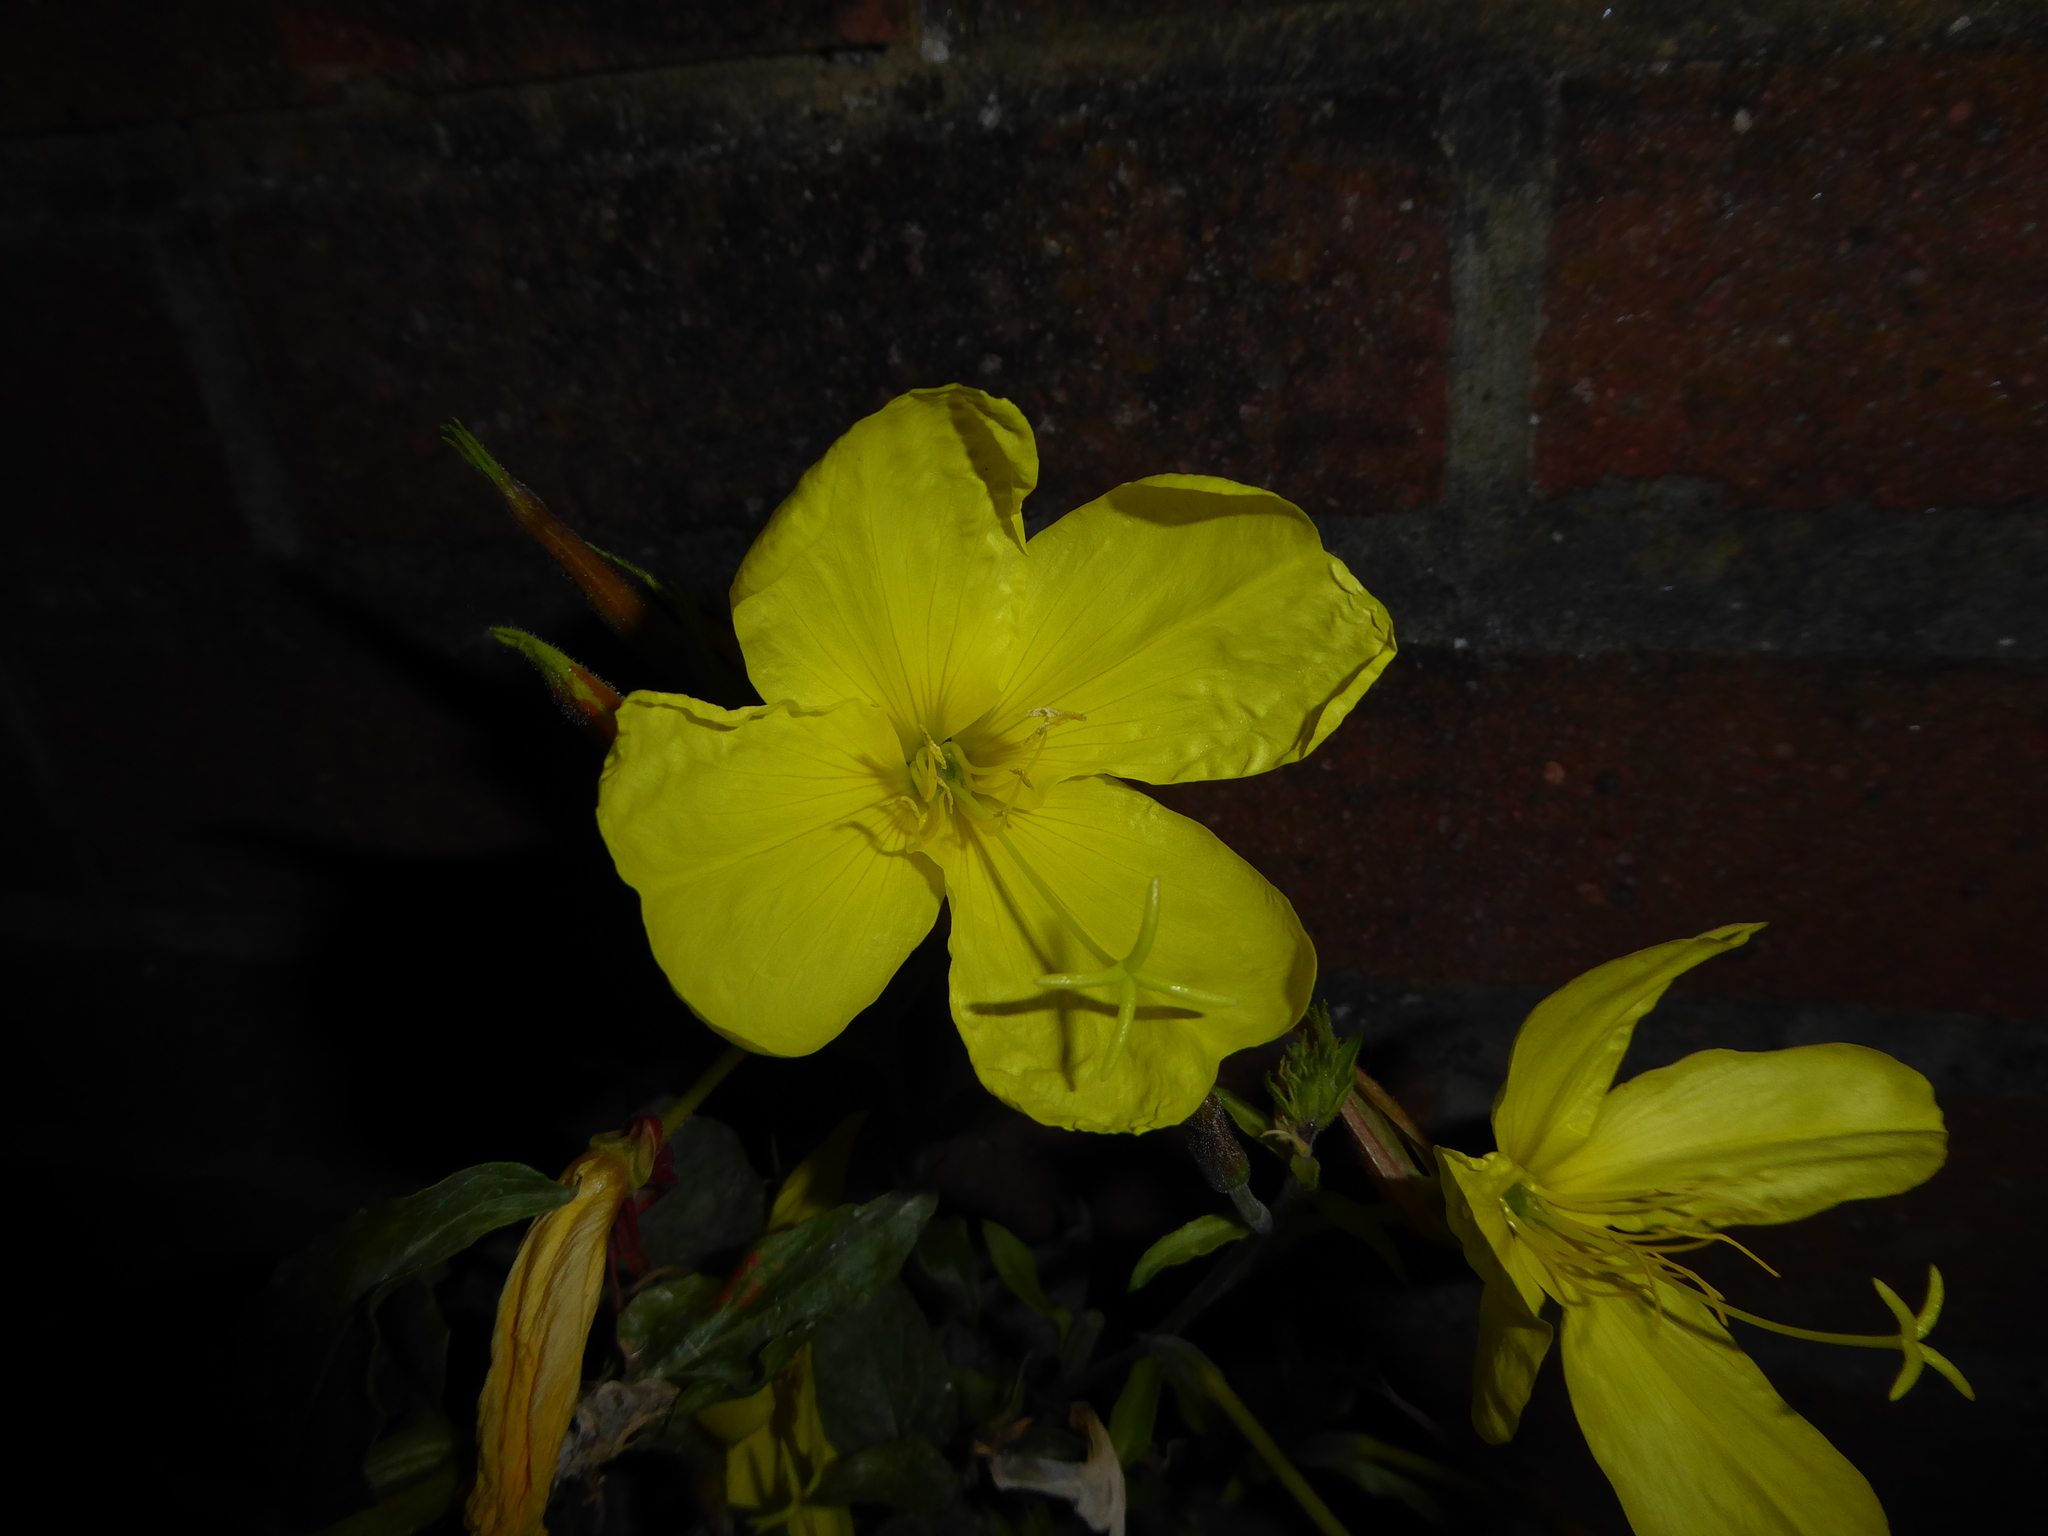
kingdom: Plantae
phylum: Tracheophyta
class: Magnoliopsida
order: Myrtales
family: Onagraceae
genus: Oenothera
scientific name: Oenothera glazioviana
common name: Large-flowered evening-primrose
